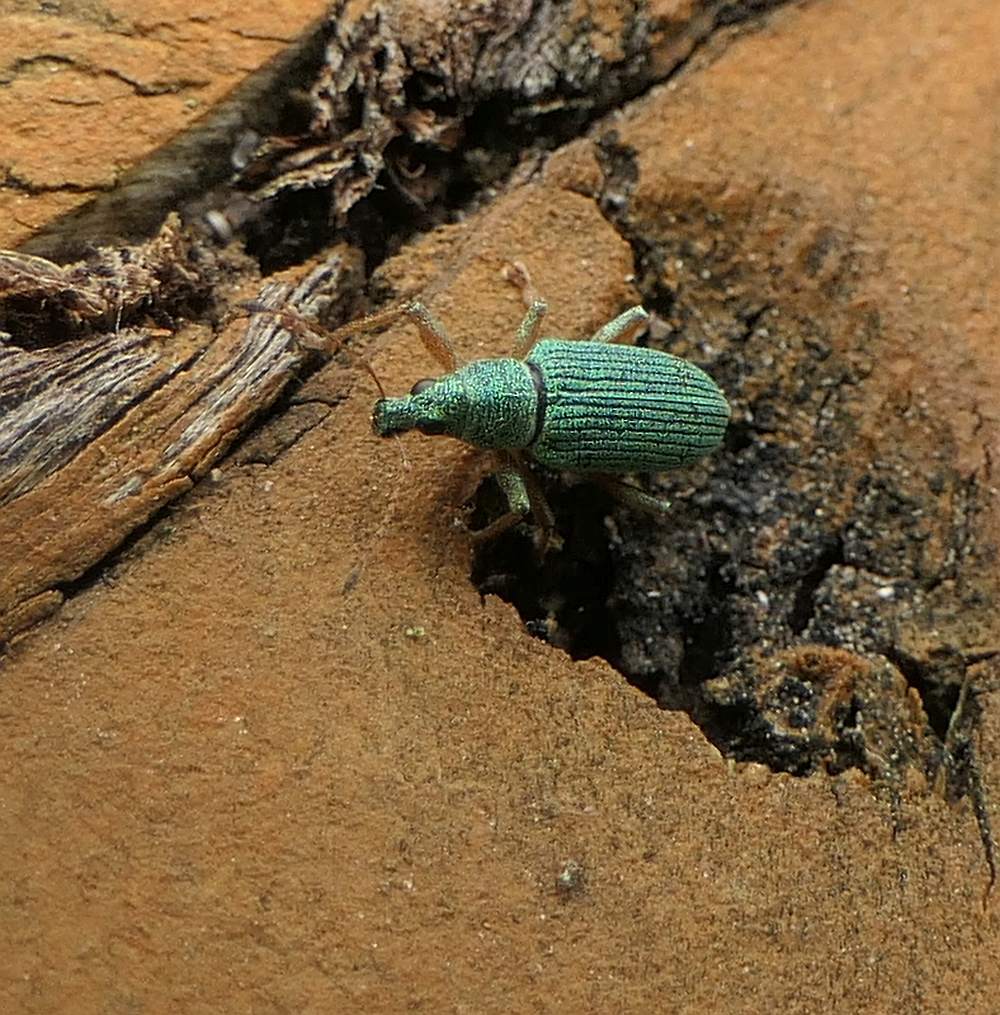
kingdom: Animalia
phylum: Arthropoda
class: Insecta
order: Coleoptera
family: Curculionidae
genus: Polydrusus
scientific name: Polydrusus formosus
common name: Weevil
